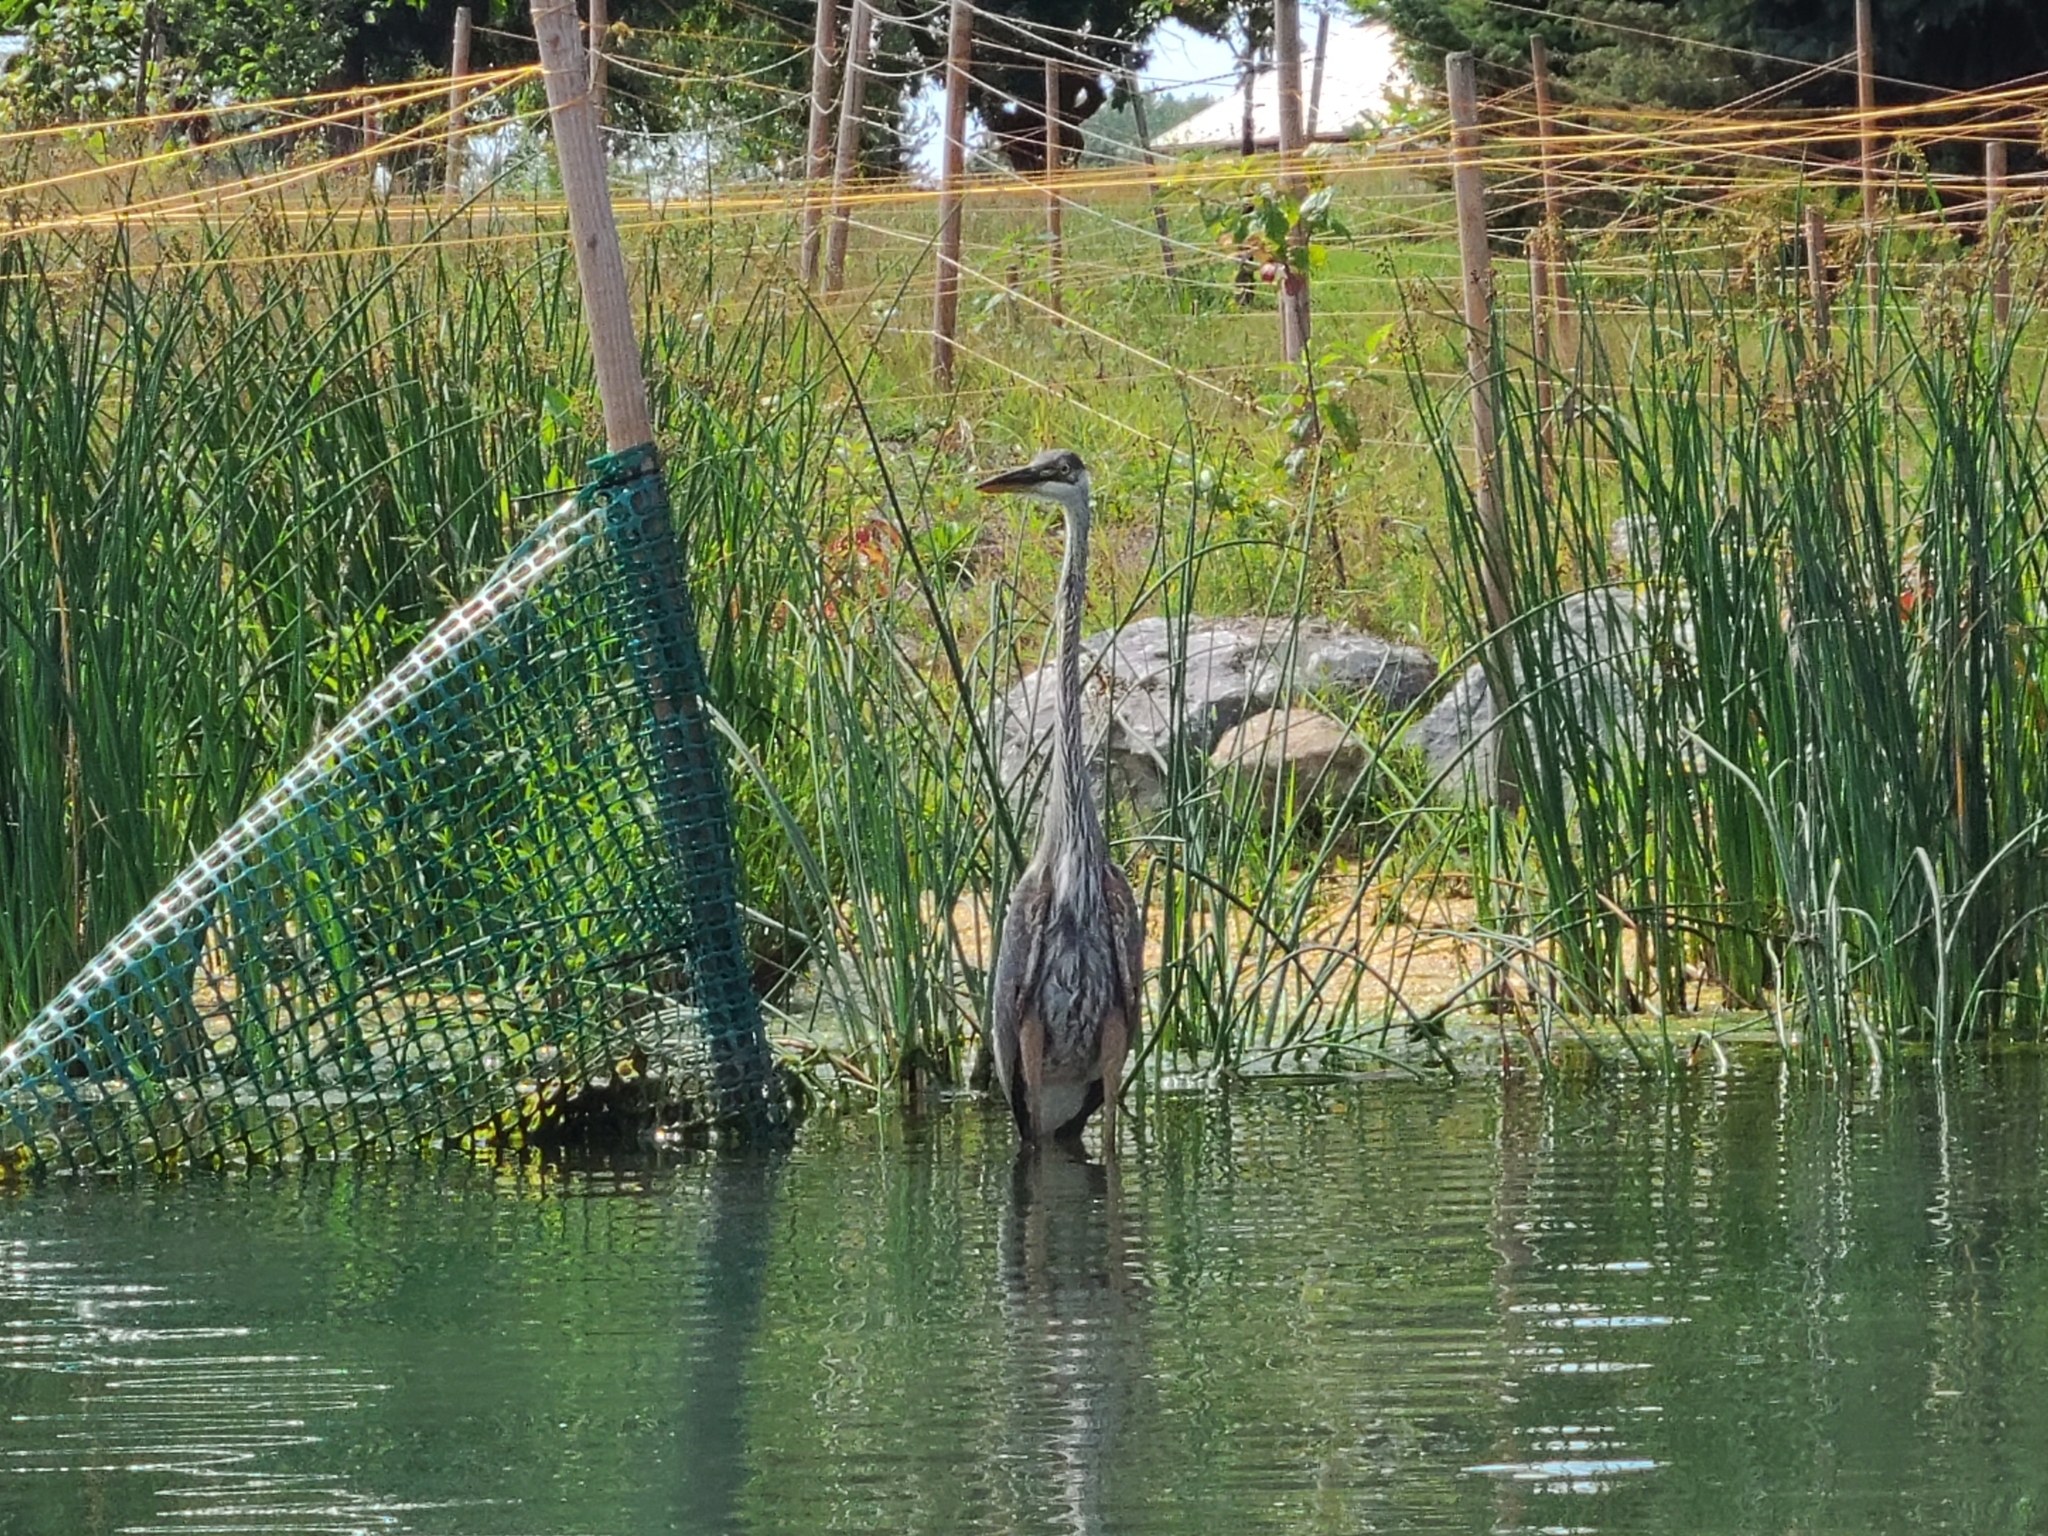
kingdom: Animalia
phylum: Chordata
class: Aves
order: Pelecaniformes
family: Ardeidae
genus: Ardea
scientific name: Ardea herodias
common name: Great blue heron
